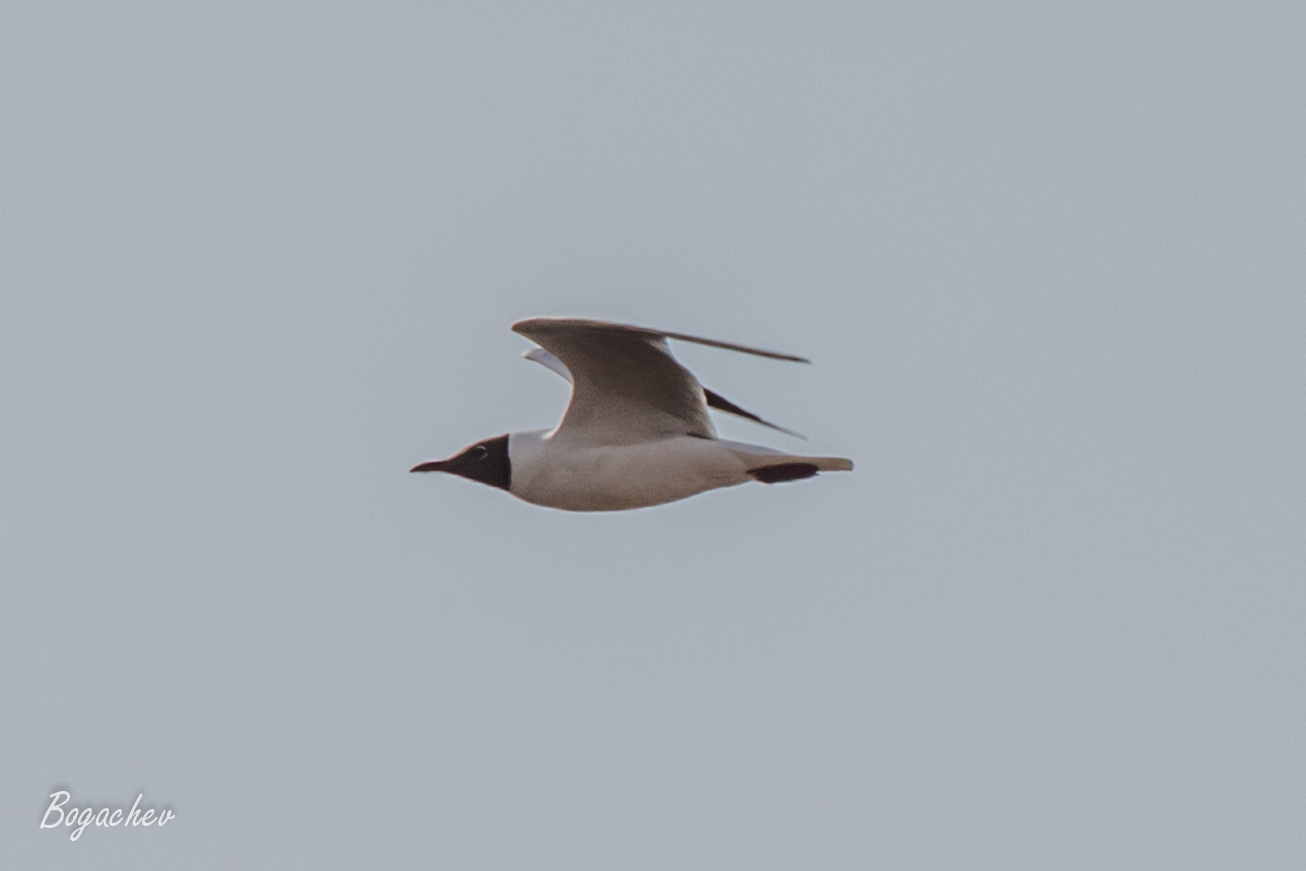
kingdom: Animalia
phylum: Chordata
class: Aves
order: Charadriiformes
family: Laridae
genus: Chroicocephalus
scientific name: Chroicocephalus ridibundus
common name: Black-headed gull
